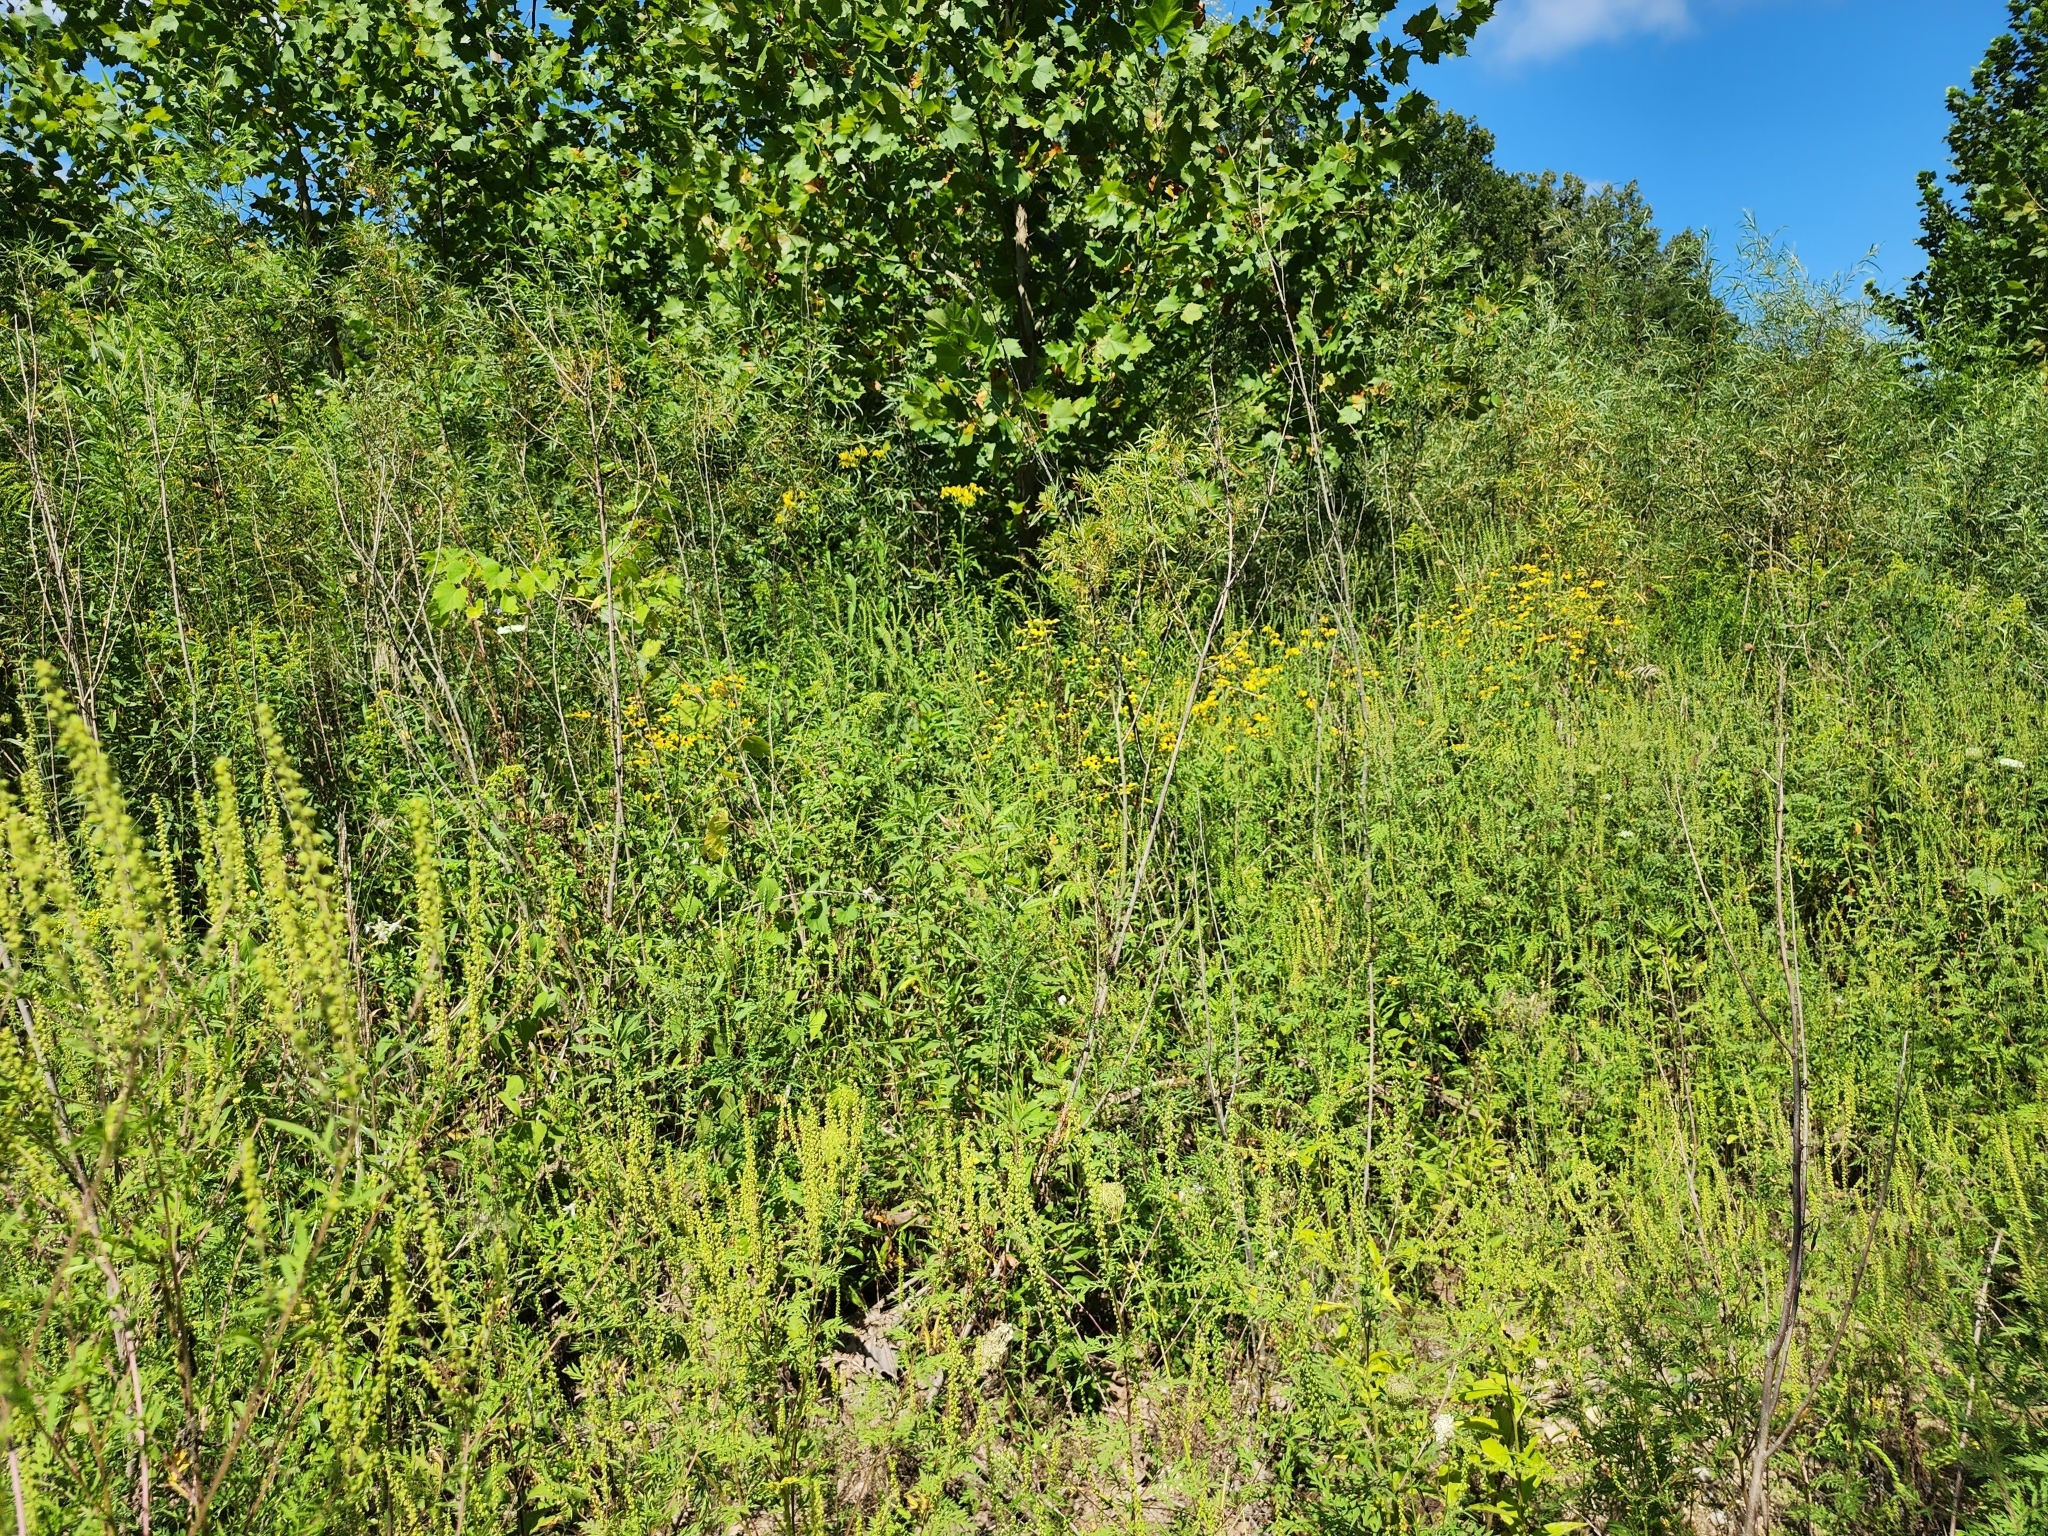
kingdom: Plantae
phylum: Tracheophyta
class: Magnoliopsida
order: Asterales
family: Asteraceae
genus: Ambrosia
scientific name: Ambrosia artemisiifolia
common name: Annual ragweed
